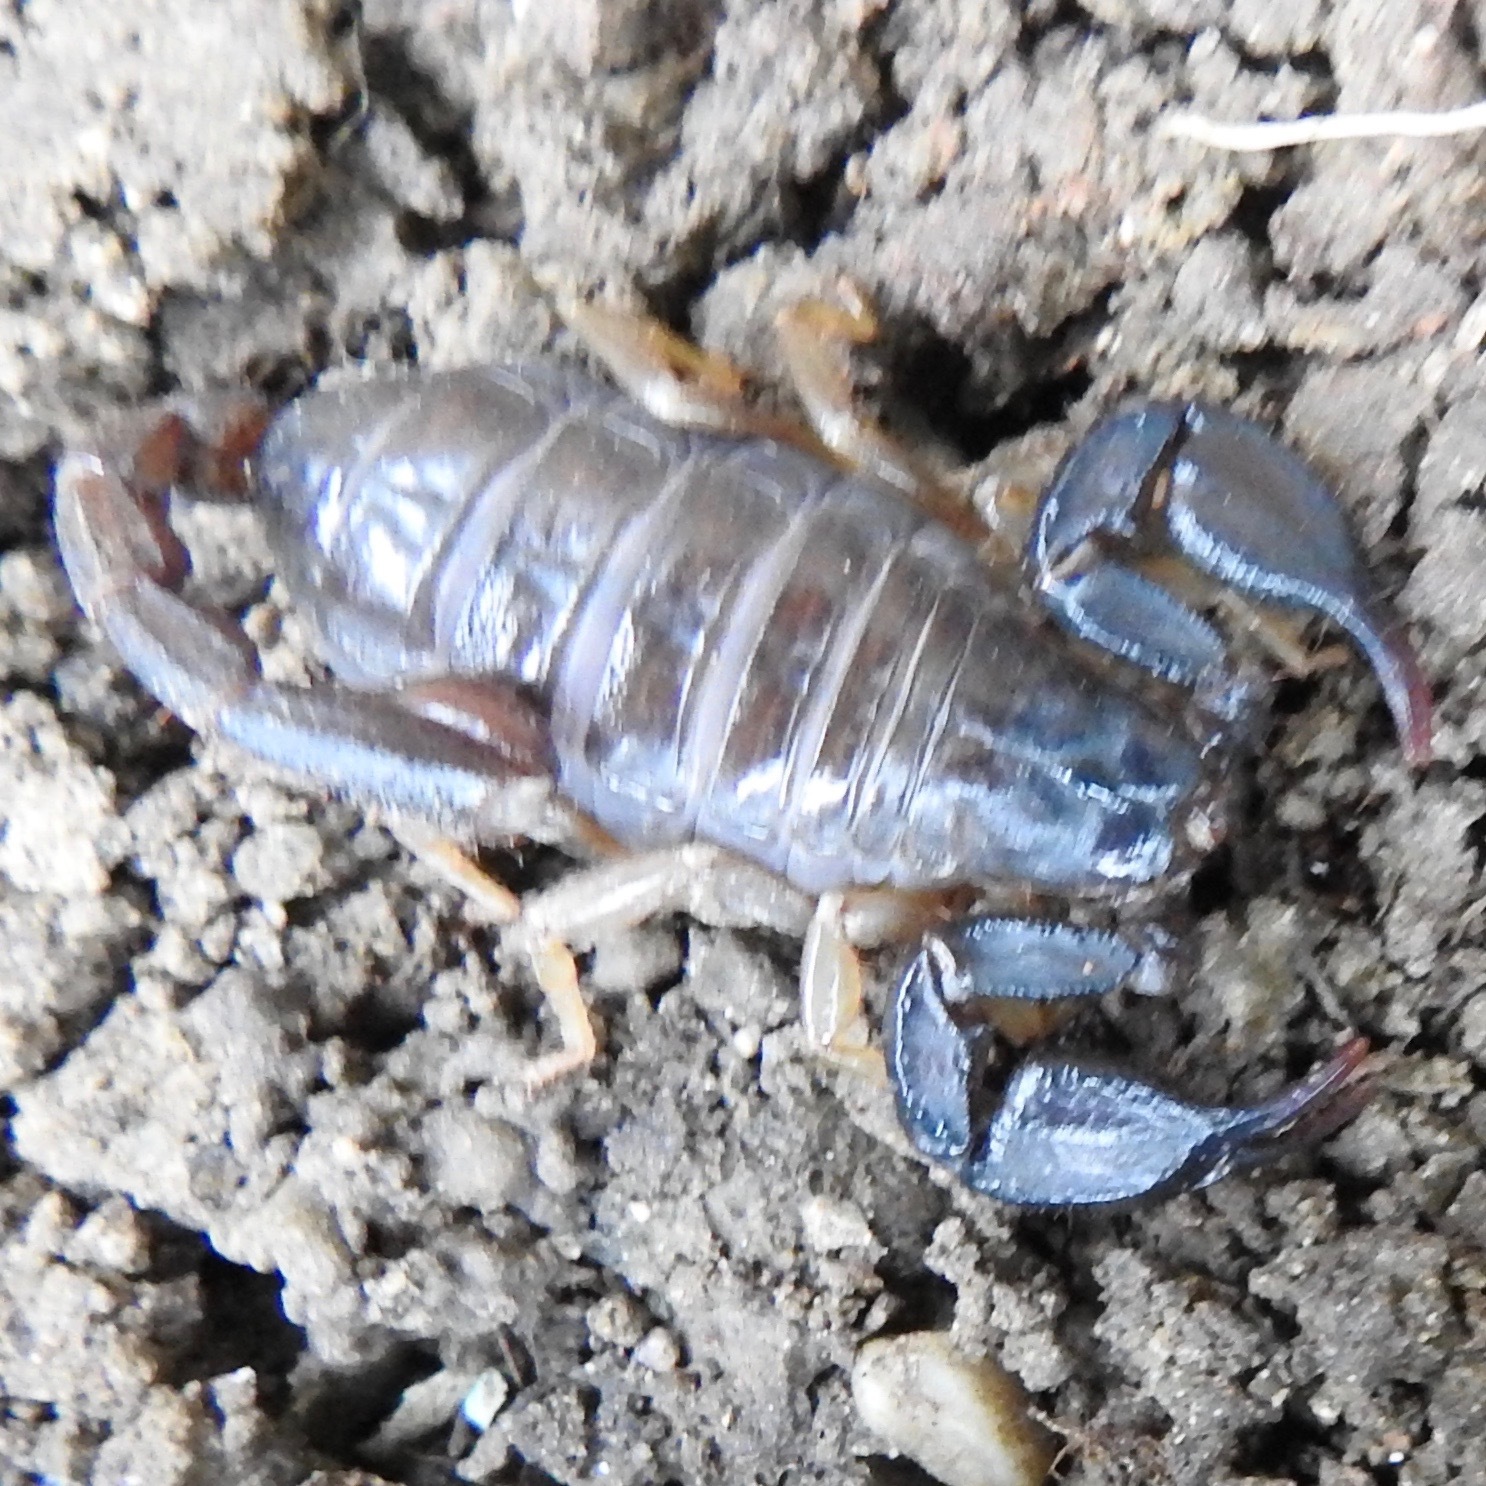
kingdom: Animalia
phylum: Arthropoda
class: Arachnida
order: Scorpiones
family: Chactidae
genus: Uroctonus
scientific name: Uroctonus mordax
